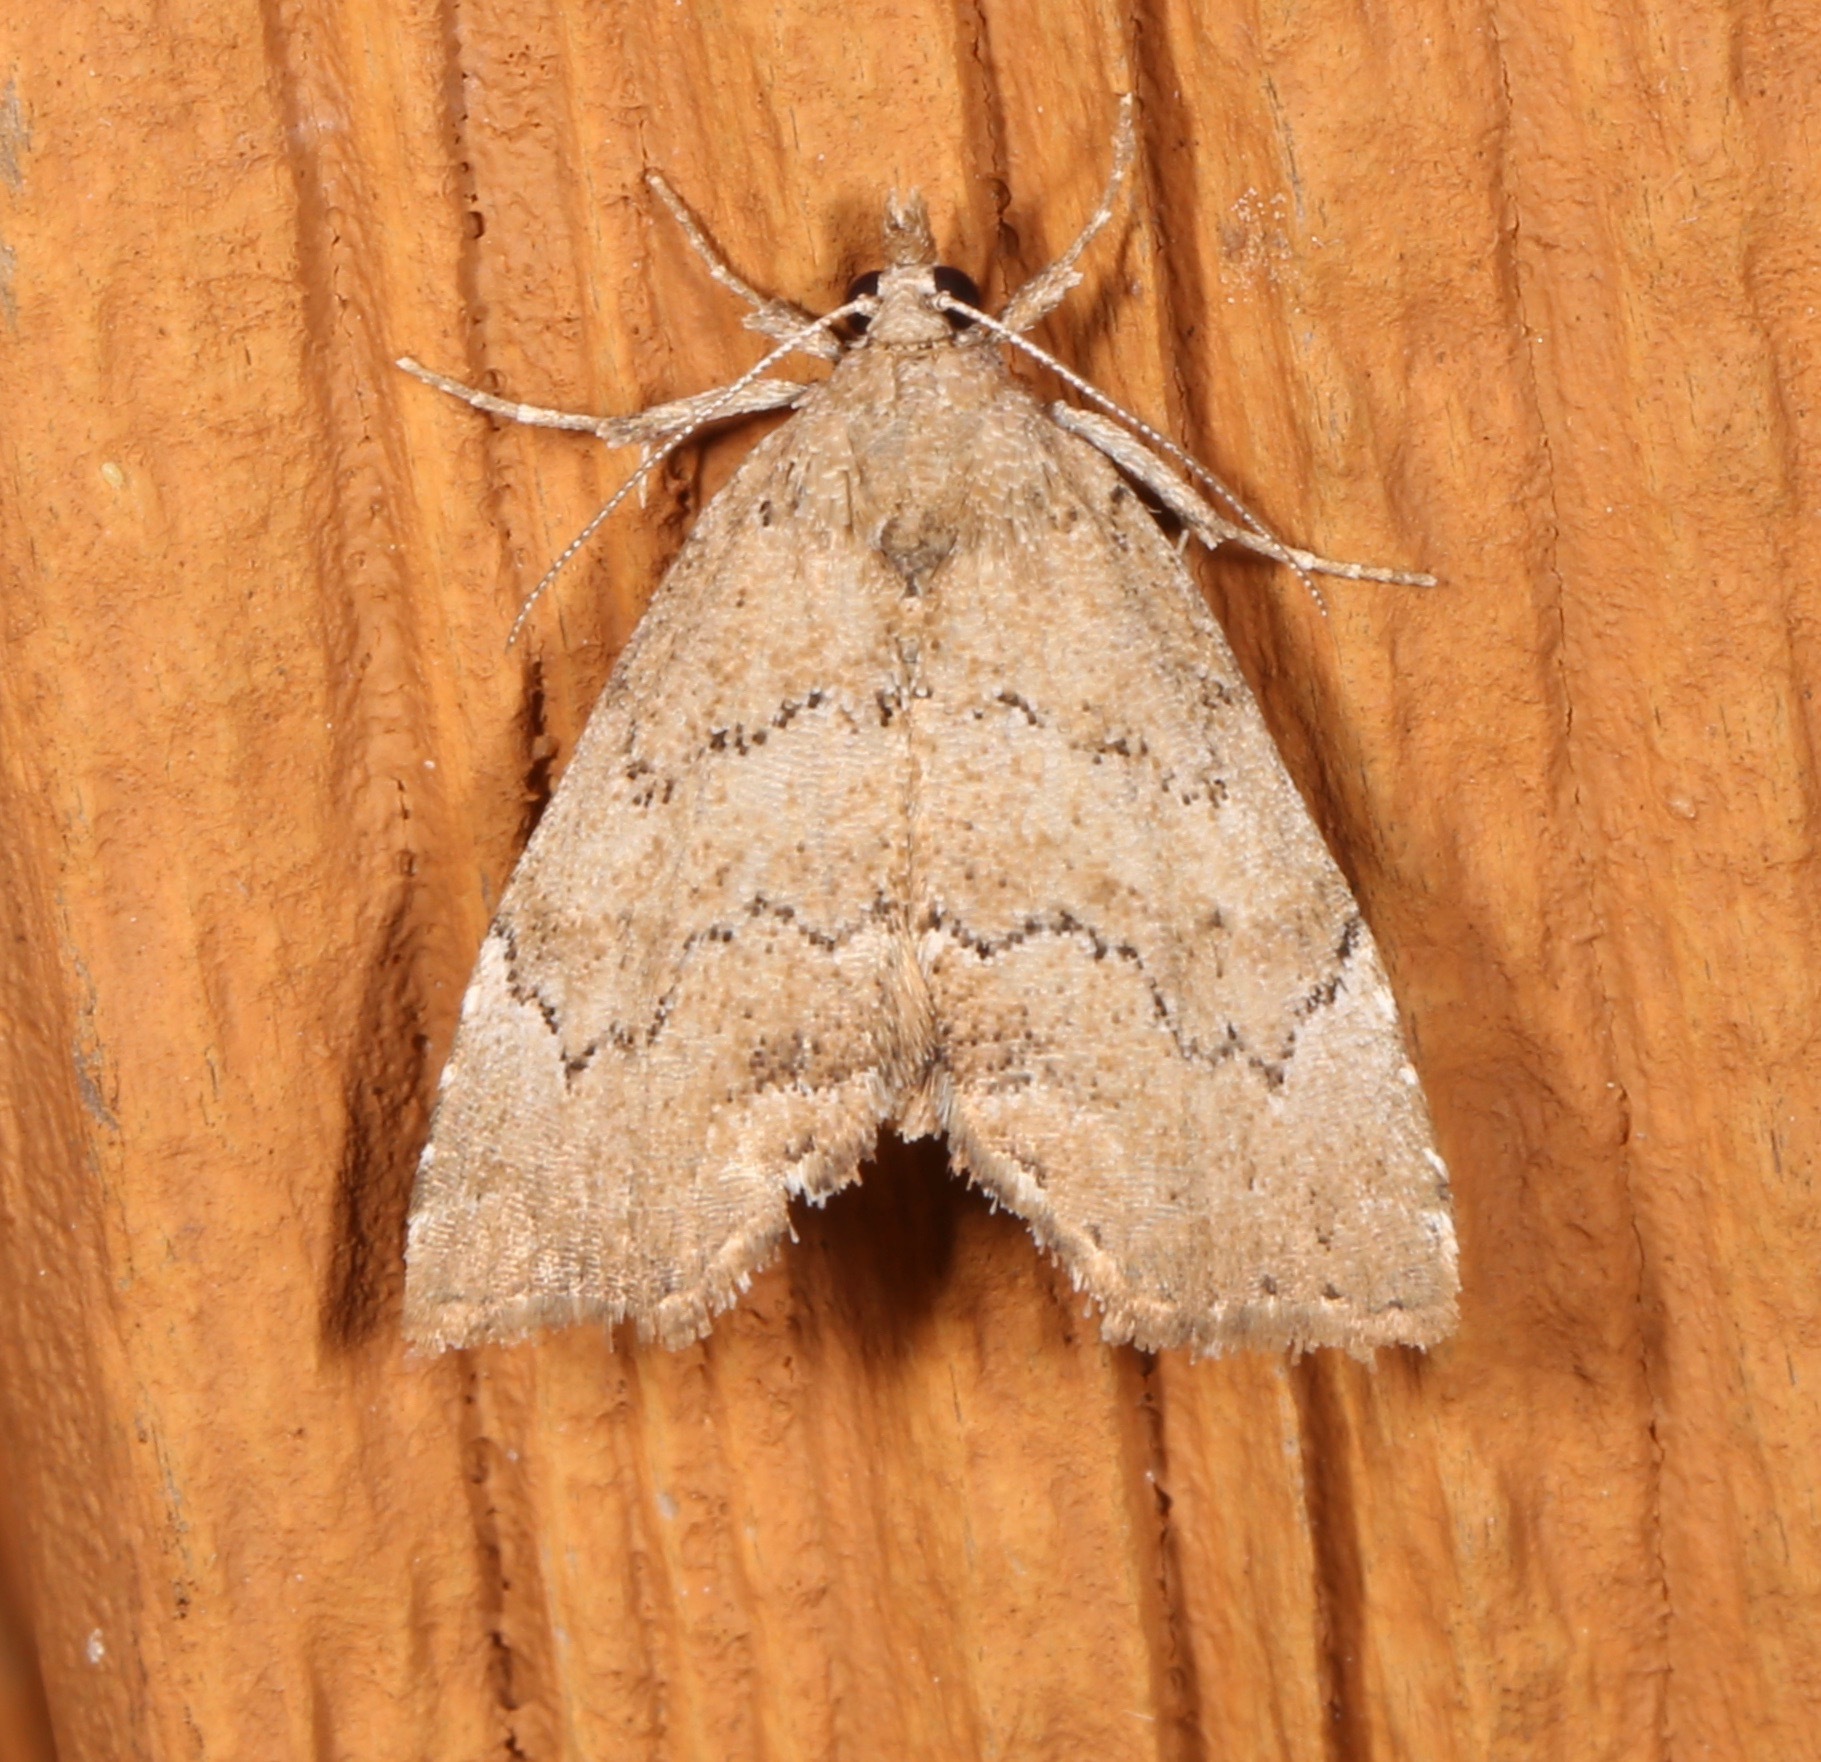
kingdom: Animalia
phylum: Arthropoda
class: Insecta
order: Lepidoptera
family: Erebidae
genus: Cutina
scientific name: Cutina aluticolor
